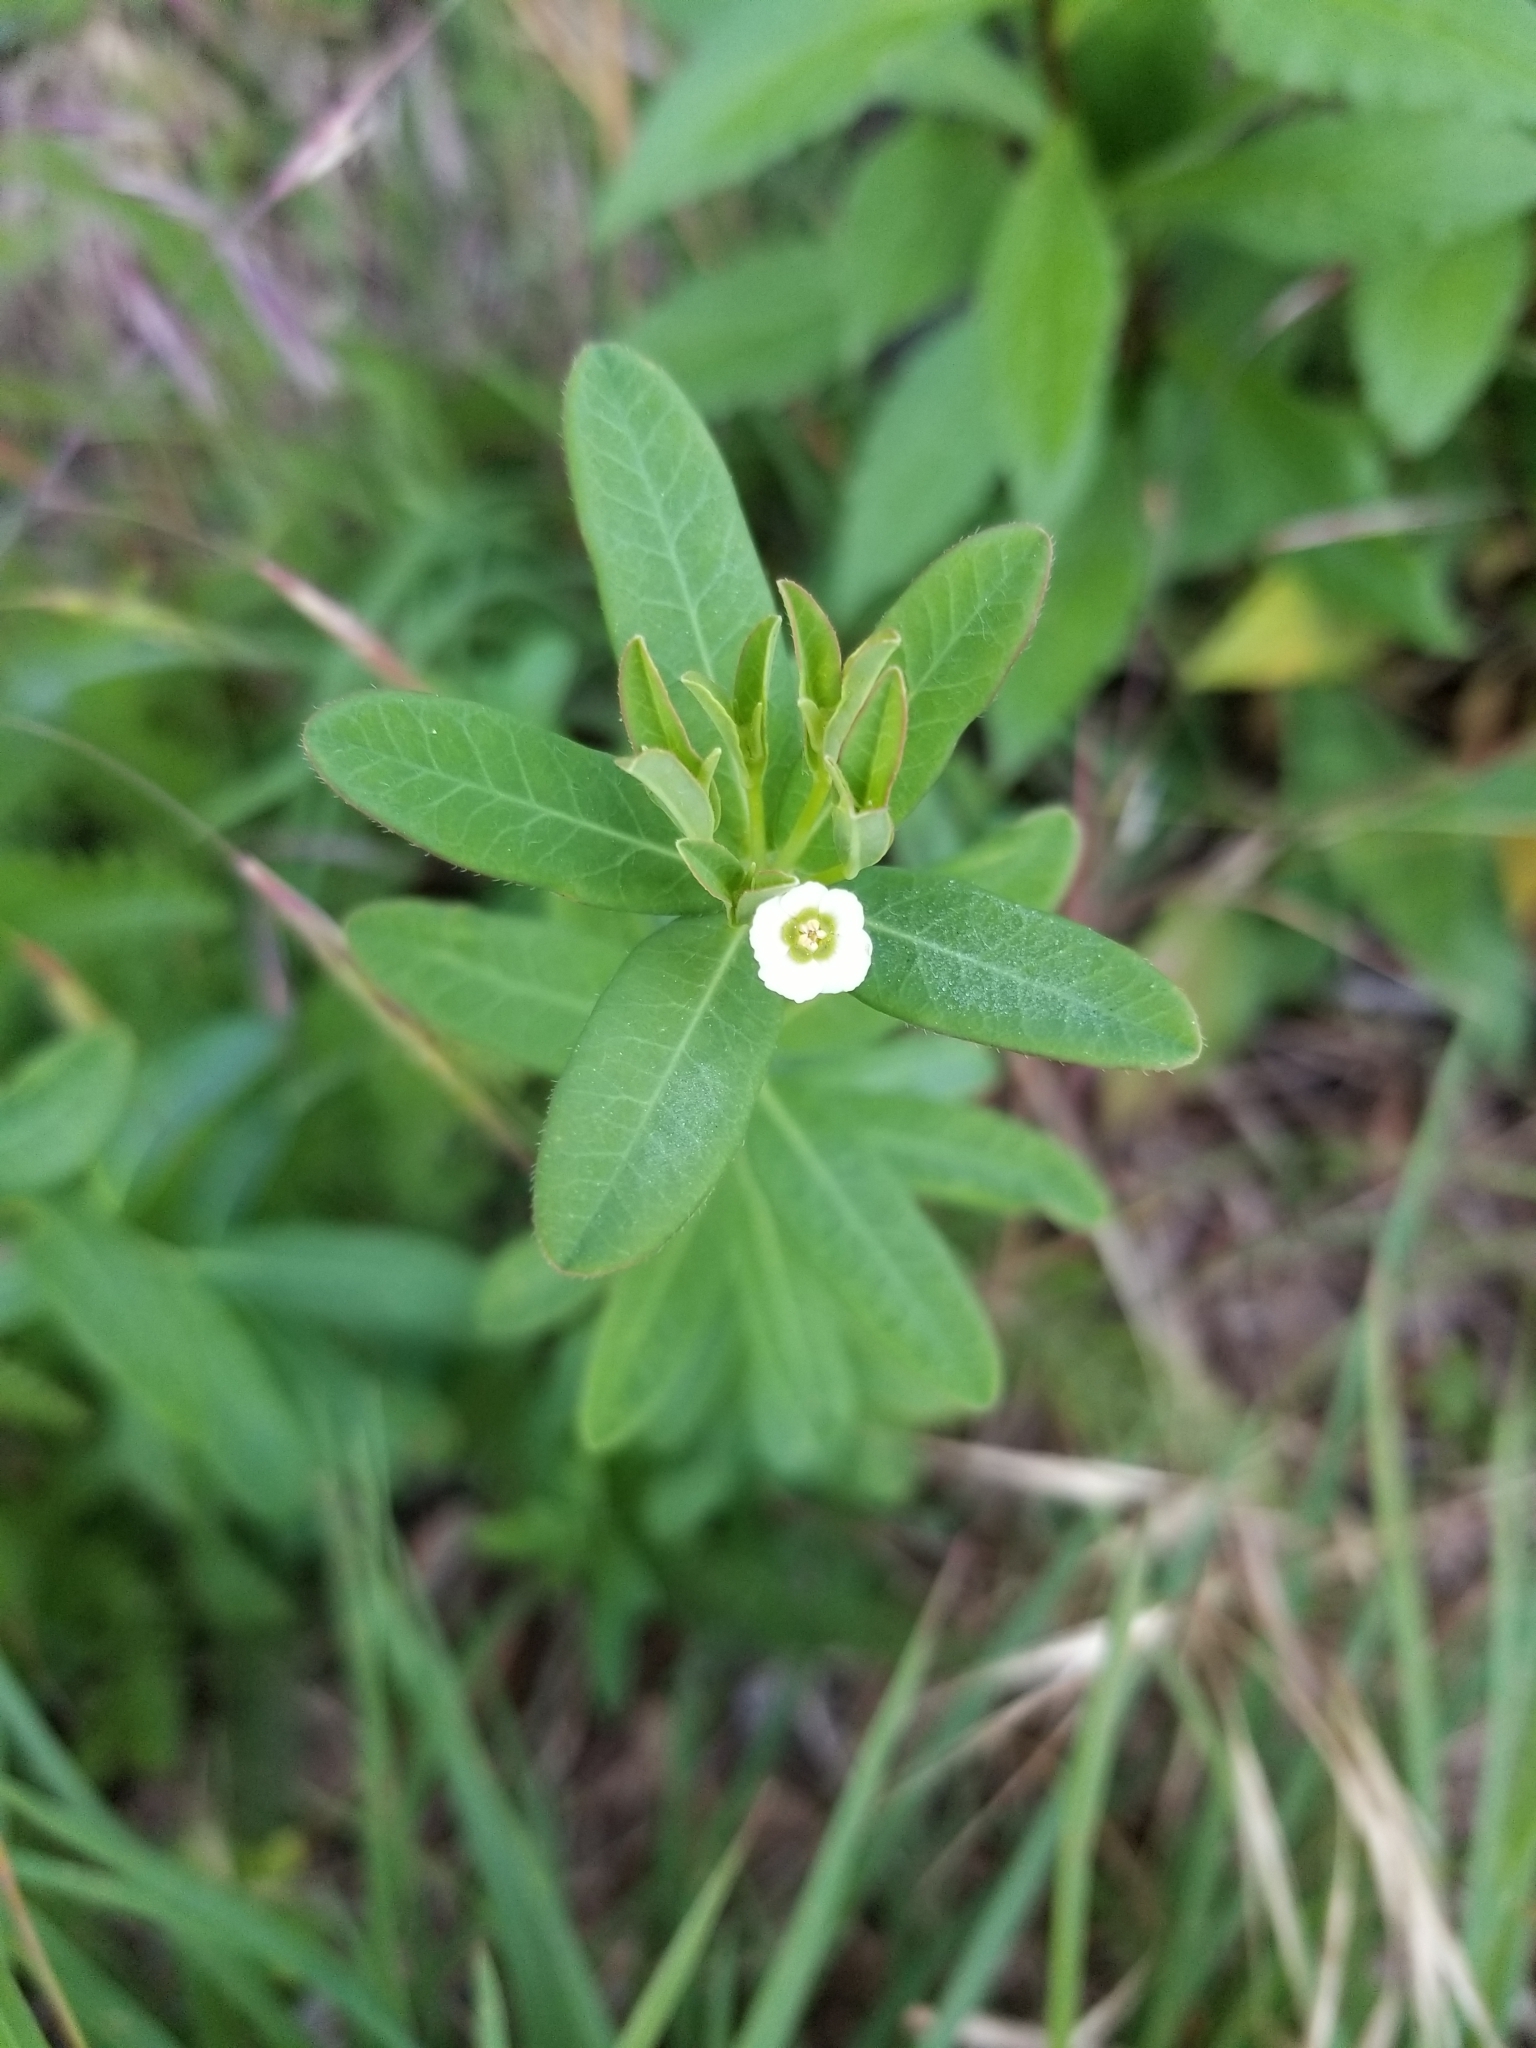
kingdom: Plantae
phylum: Tracheophyta
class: Magnoliopsida
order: Malpighiales
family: Euphorbiaceae
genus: Euphorbia
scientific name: Euphorbia corollata
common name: Flowering spurge
